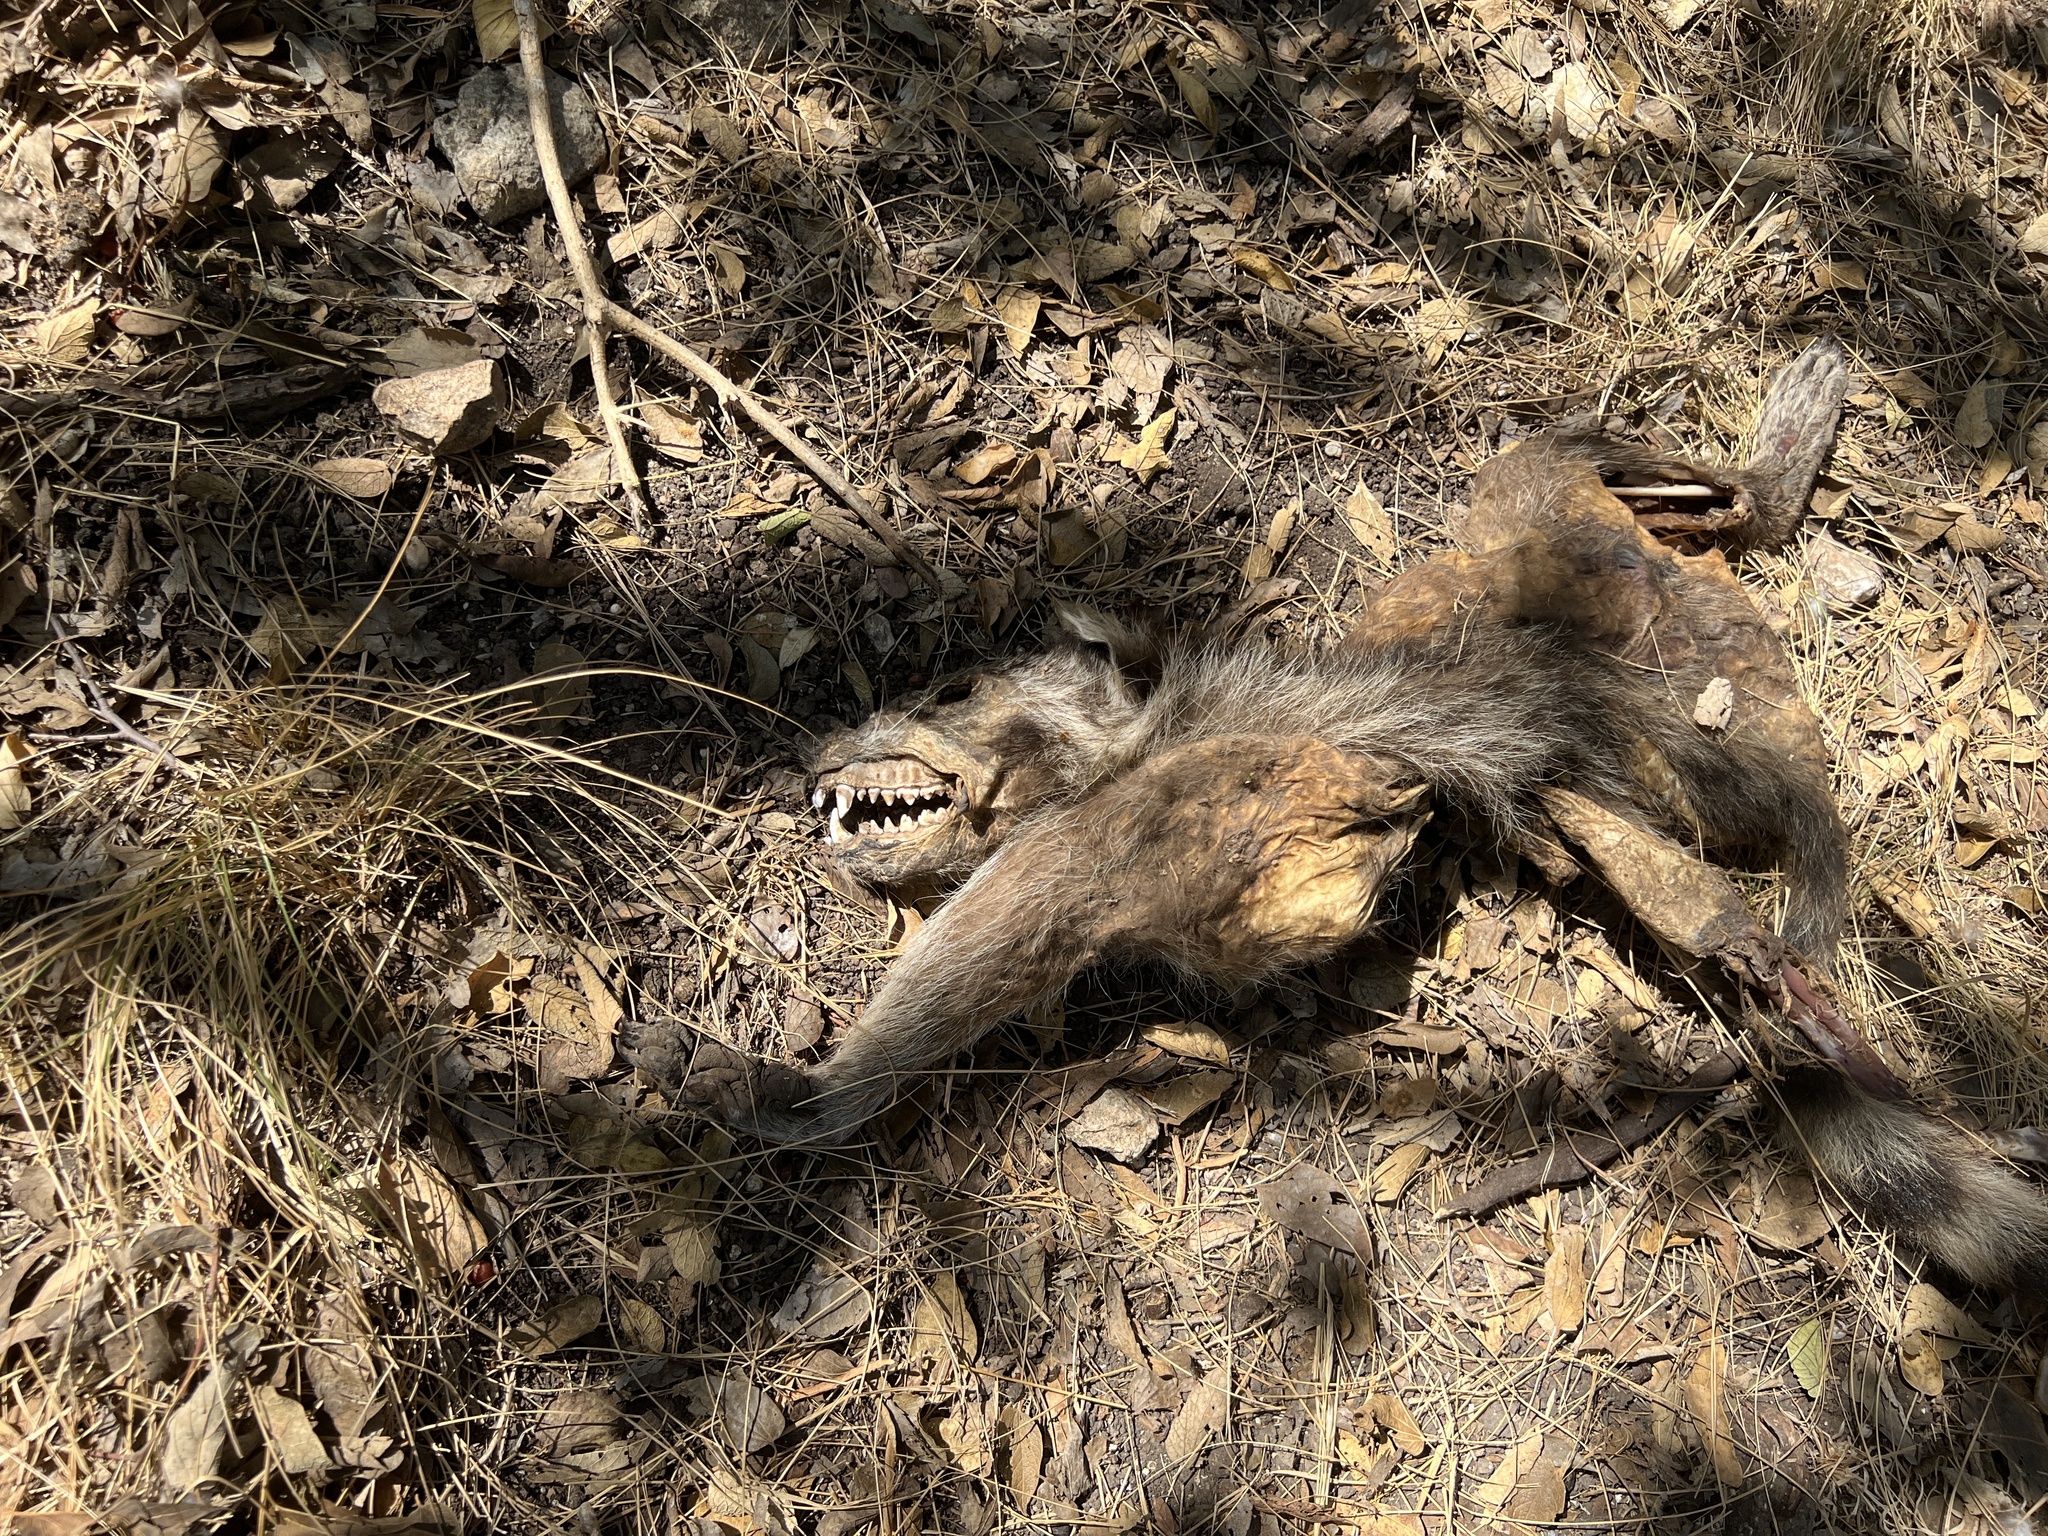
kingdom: Animalia
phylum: Chordata
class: Mammalia
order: Carnivora
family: Procyonidae
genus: Procyon
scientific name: Procyon lotor
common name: Raccoon
